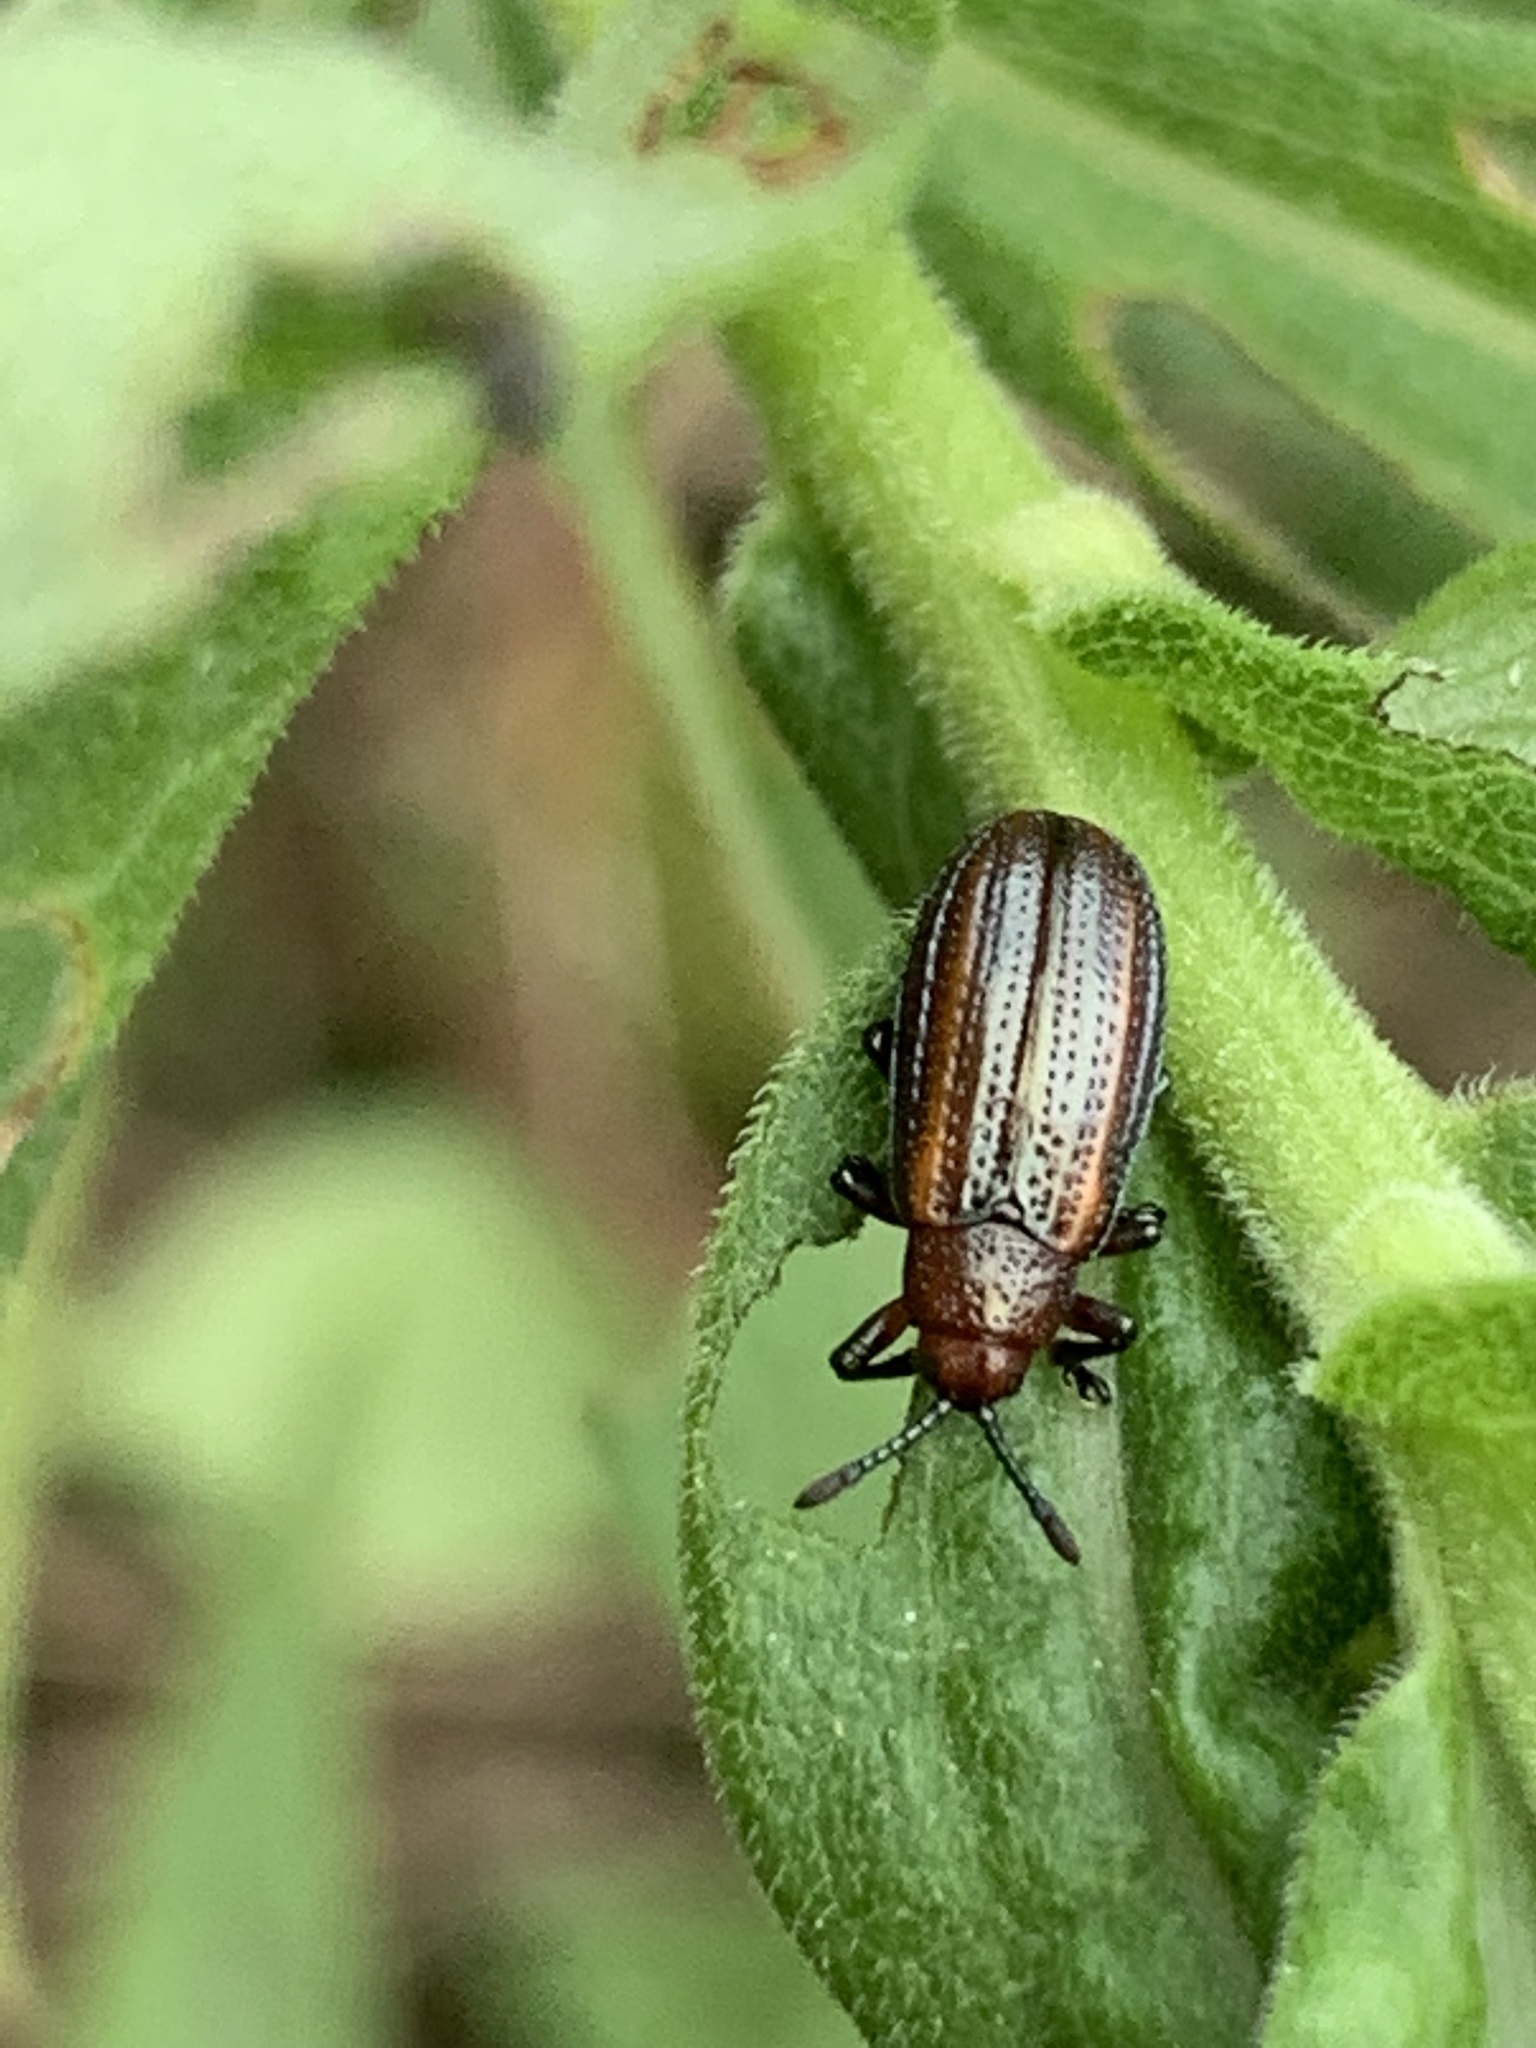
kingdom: Animalia
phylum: Arthropoda
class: Insecta
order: Coleoptera
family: Chrysomelidae
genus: Microrhopala
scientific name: Microrhopala vittata
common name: Goldenrod leaf miner beetle
